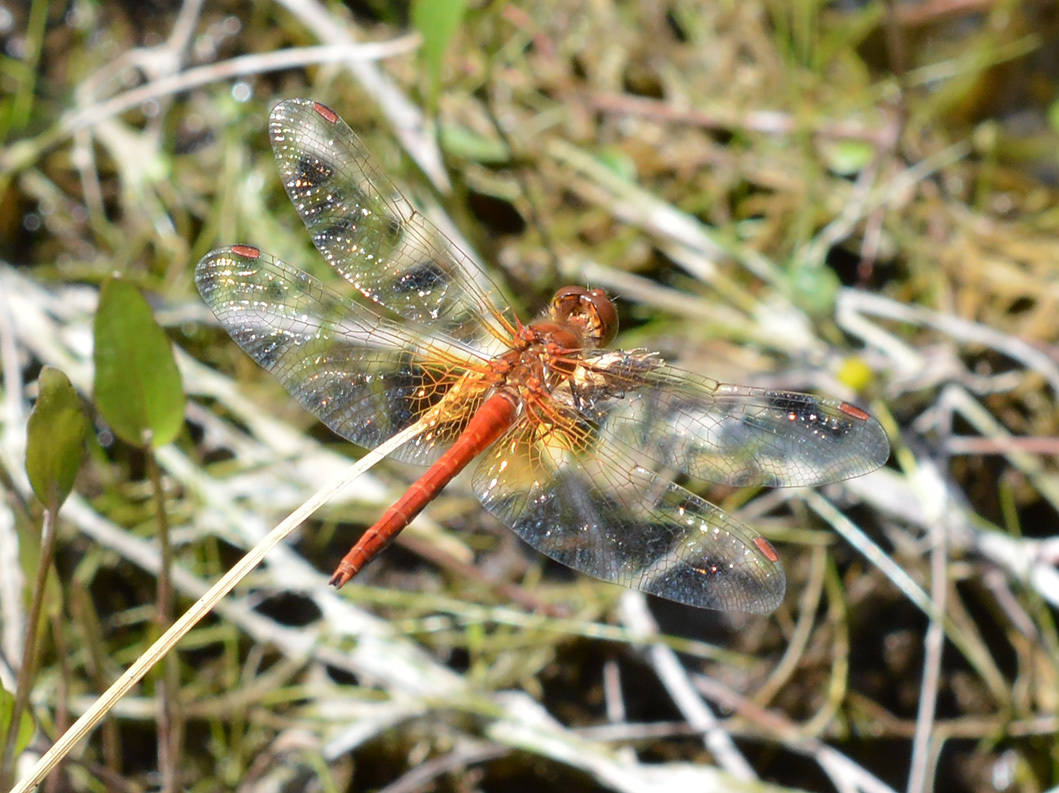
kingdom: Animalia
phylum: Arthropoda
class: Insecta
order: Odonata
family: Libellulidae
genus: Sympetrum
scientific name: Sympetrum flaveolum
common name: Yellow-winged darter
